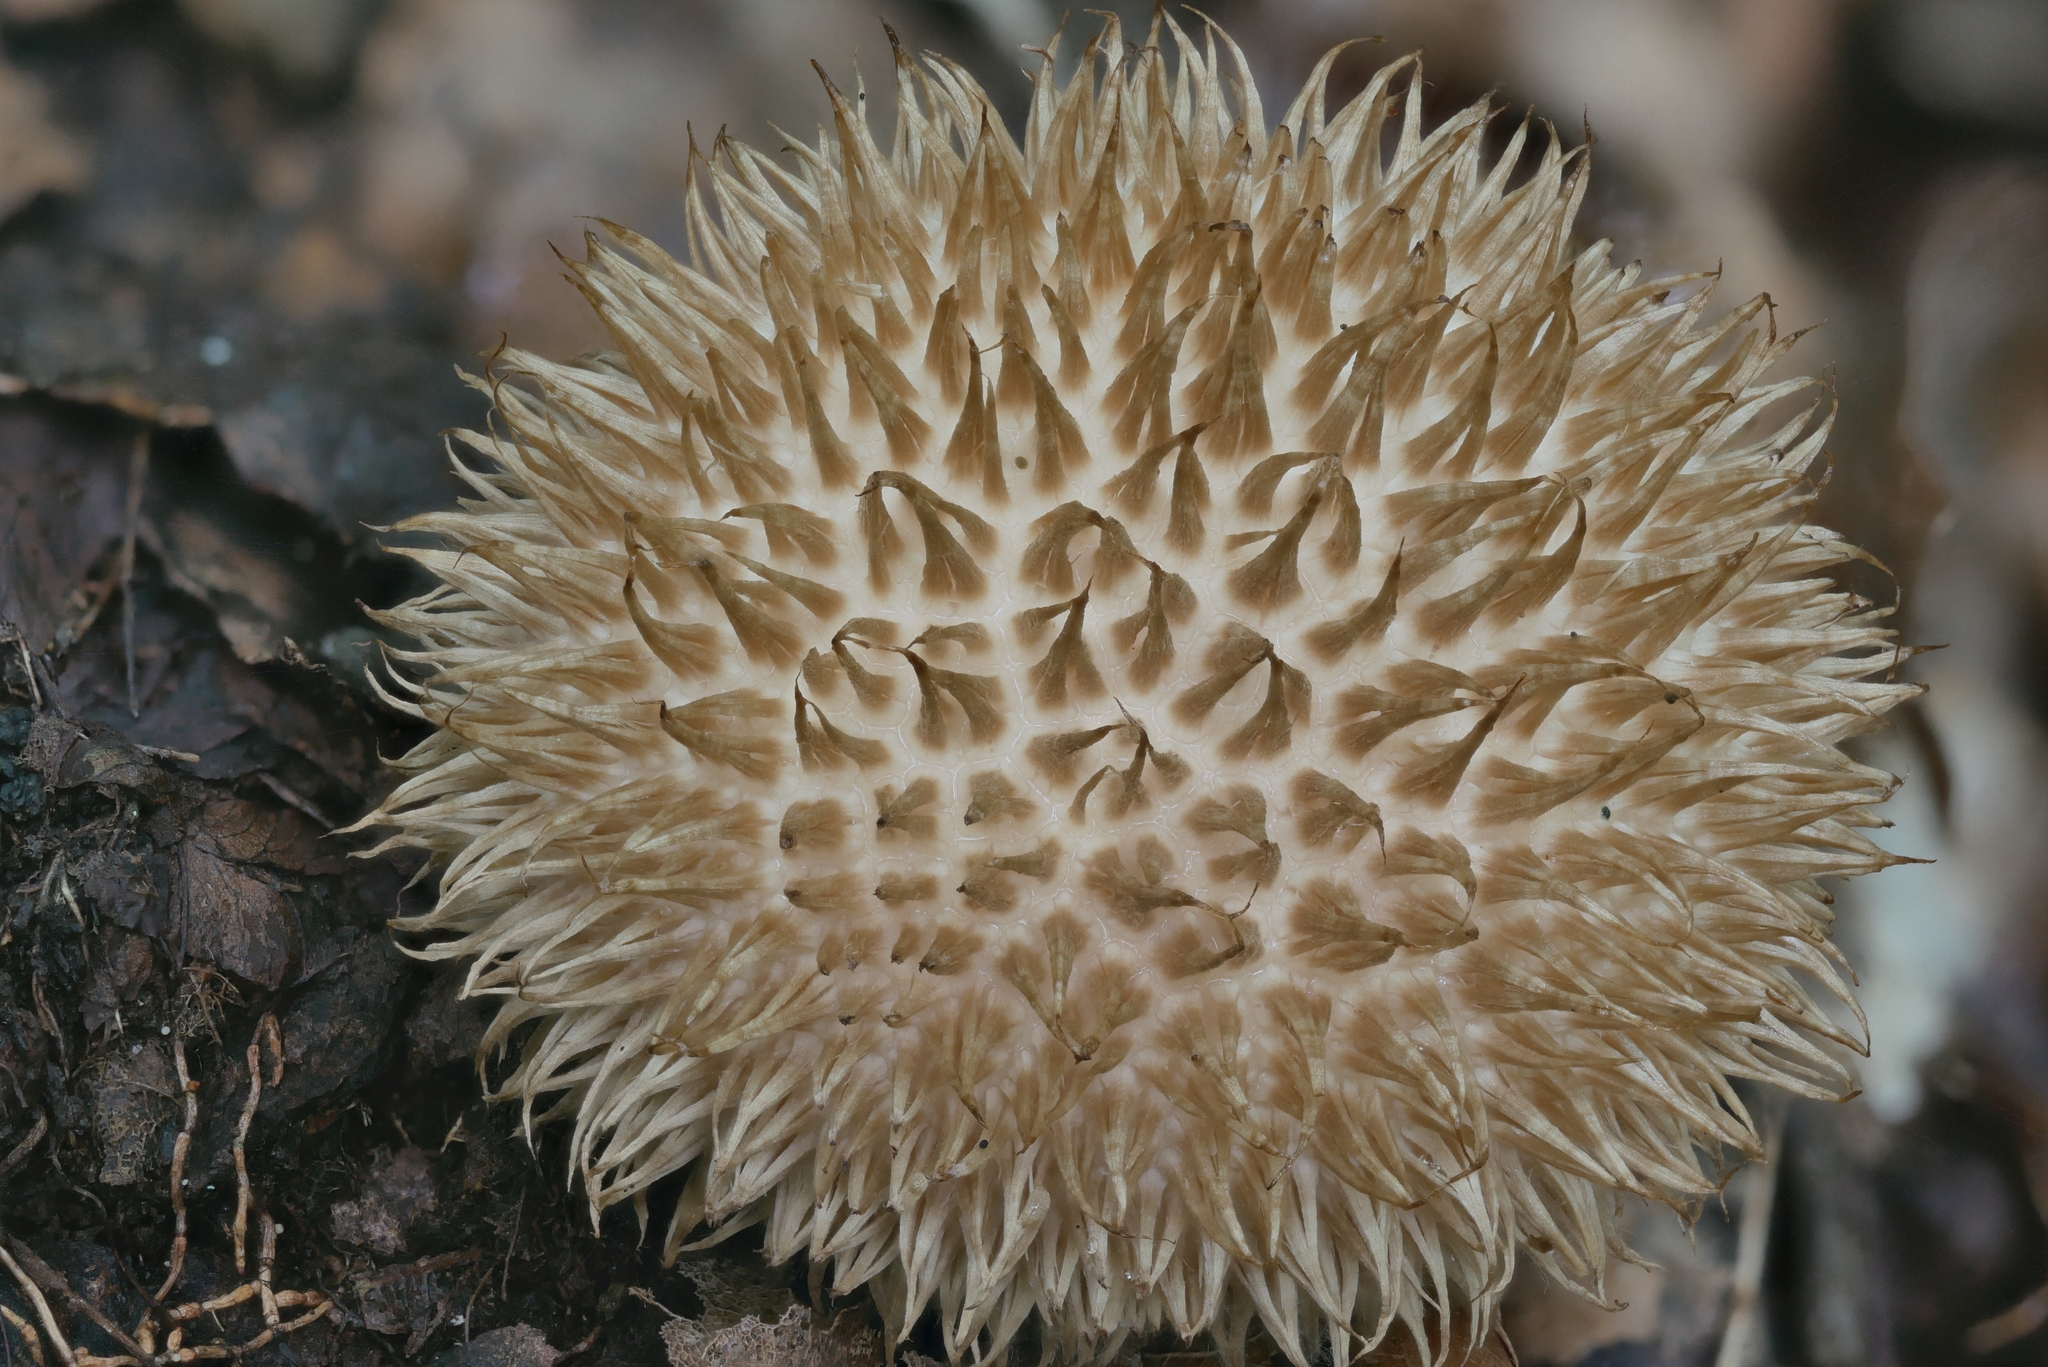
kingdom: Fungi
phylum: Basidiomycota
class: Agaricomycetes
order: Agaricales
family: Lycoperdaceae
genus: Lycoperdon
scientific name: Lycoperdon americanum
